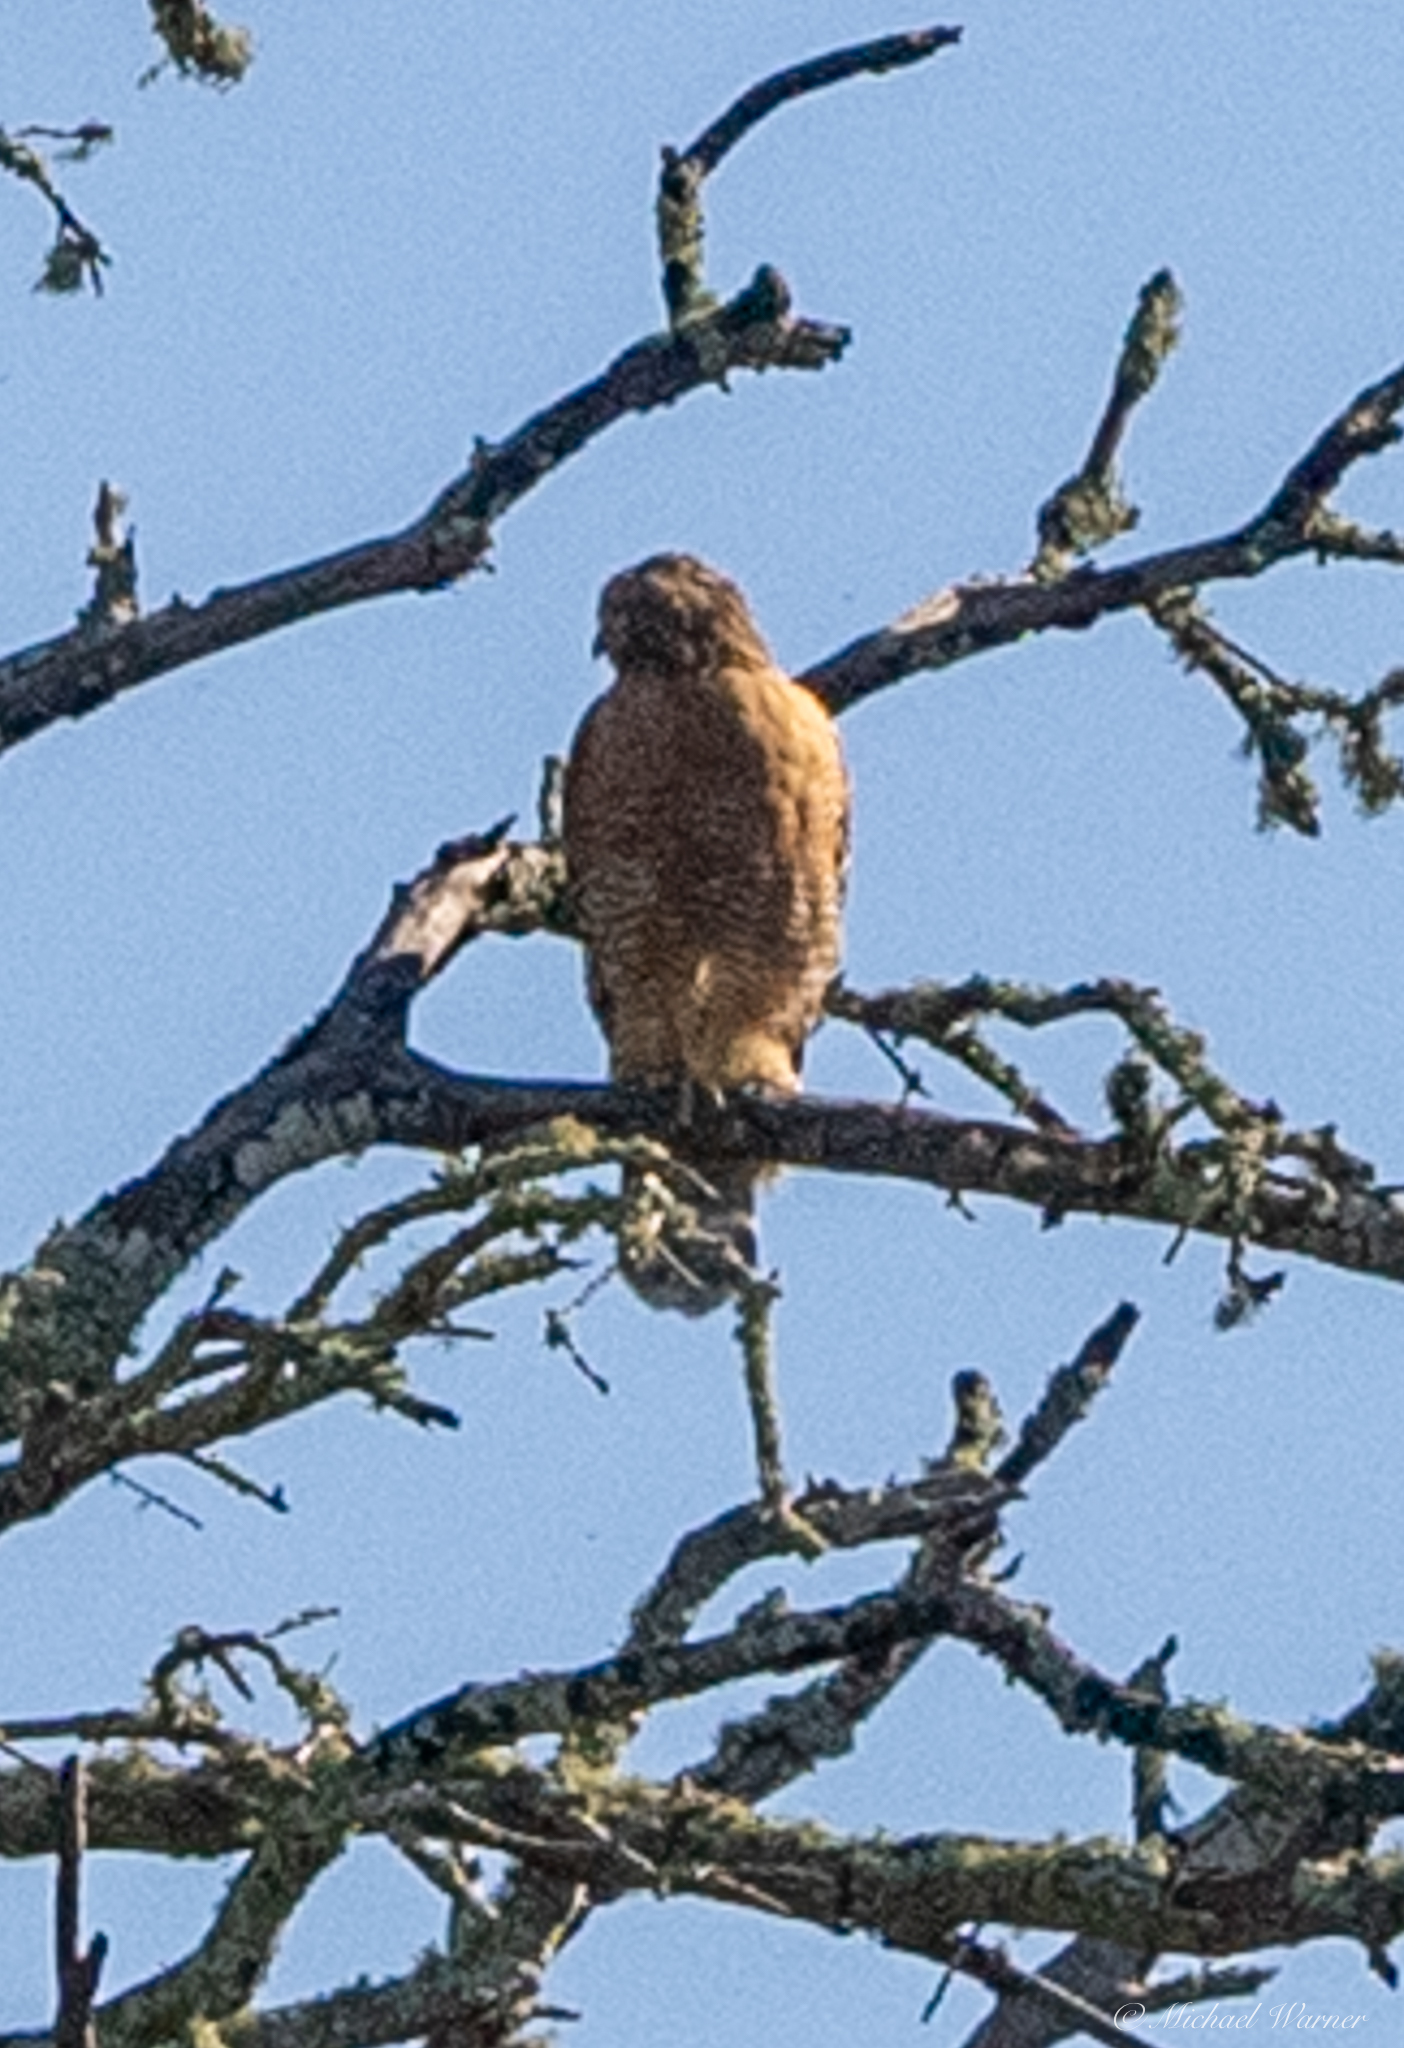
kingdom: Animalia
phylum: Chordata
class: Aves
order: Accipitriformes
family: Accipitridae
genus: Buteo
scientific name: Buteo lineatus
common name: Red-shouldered hawk
